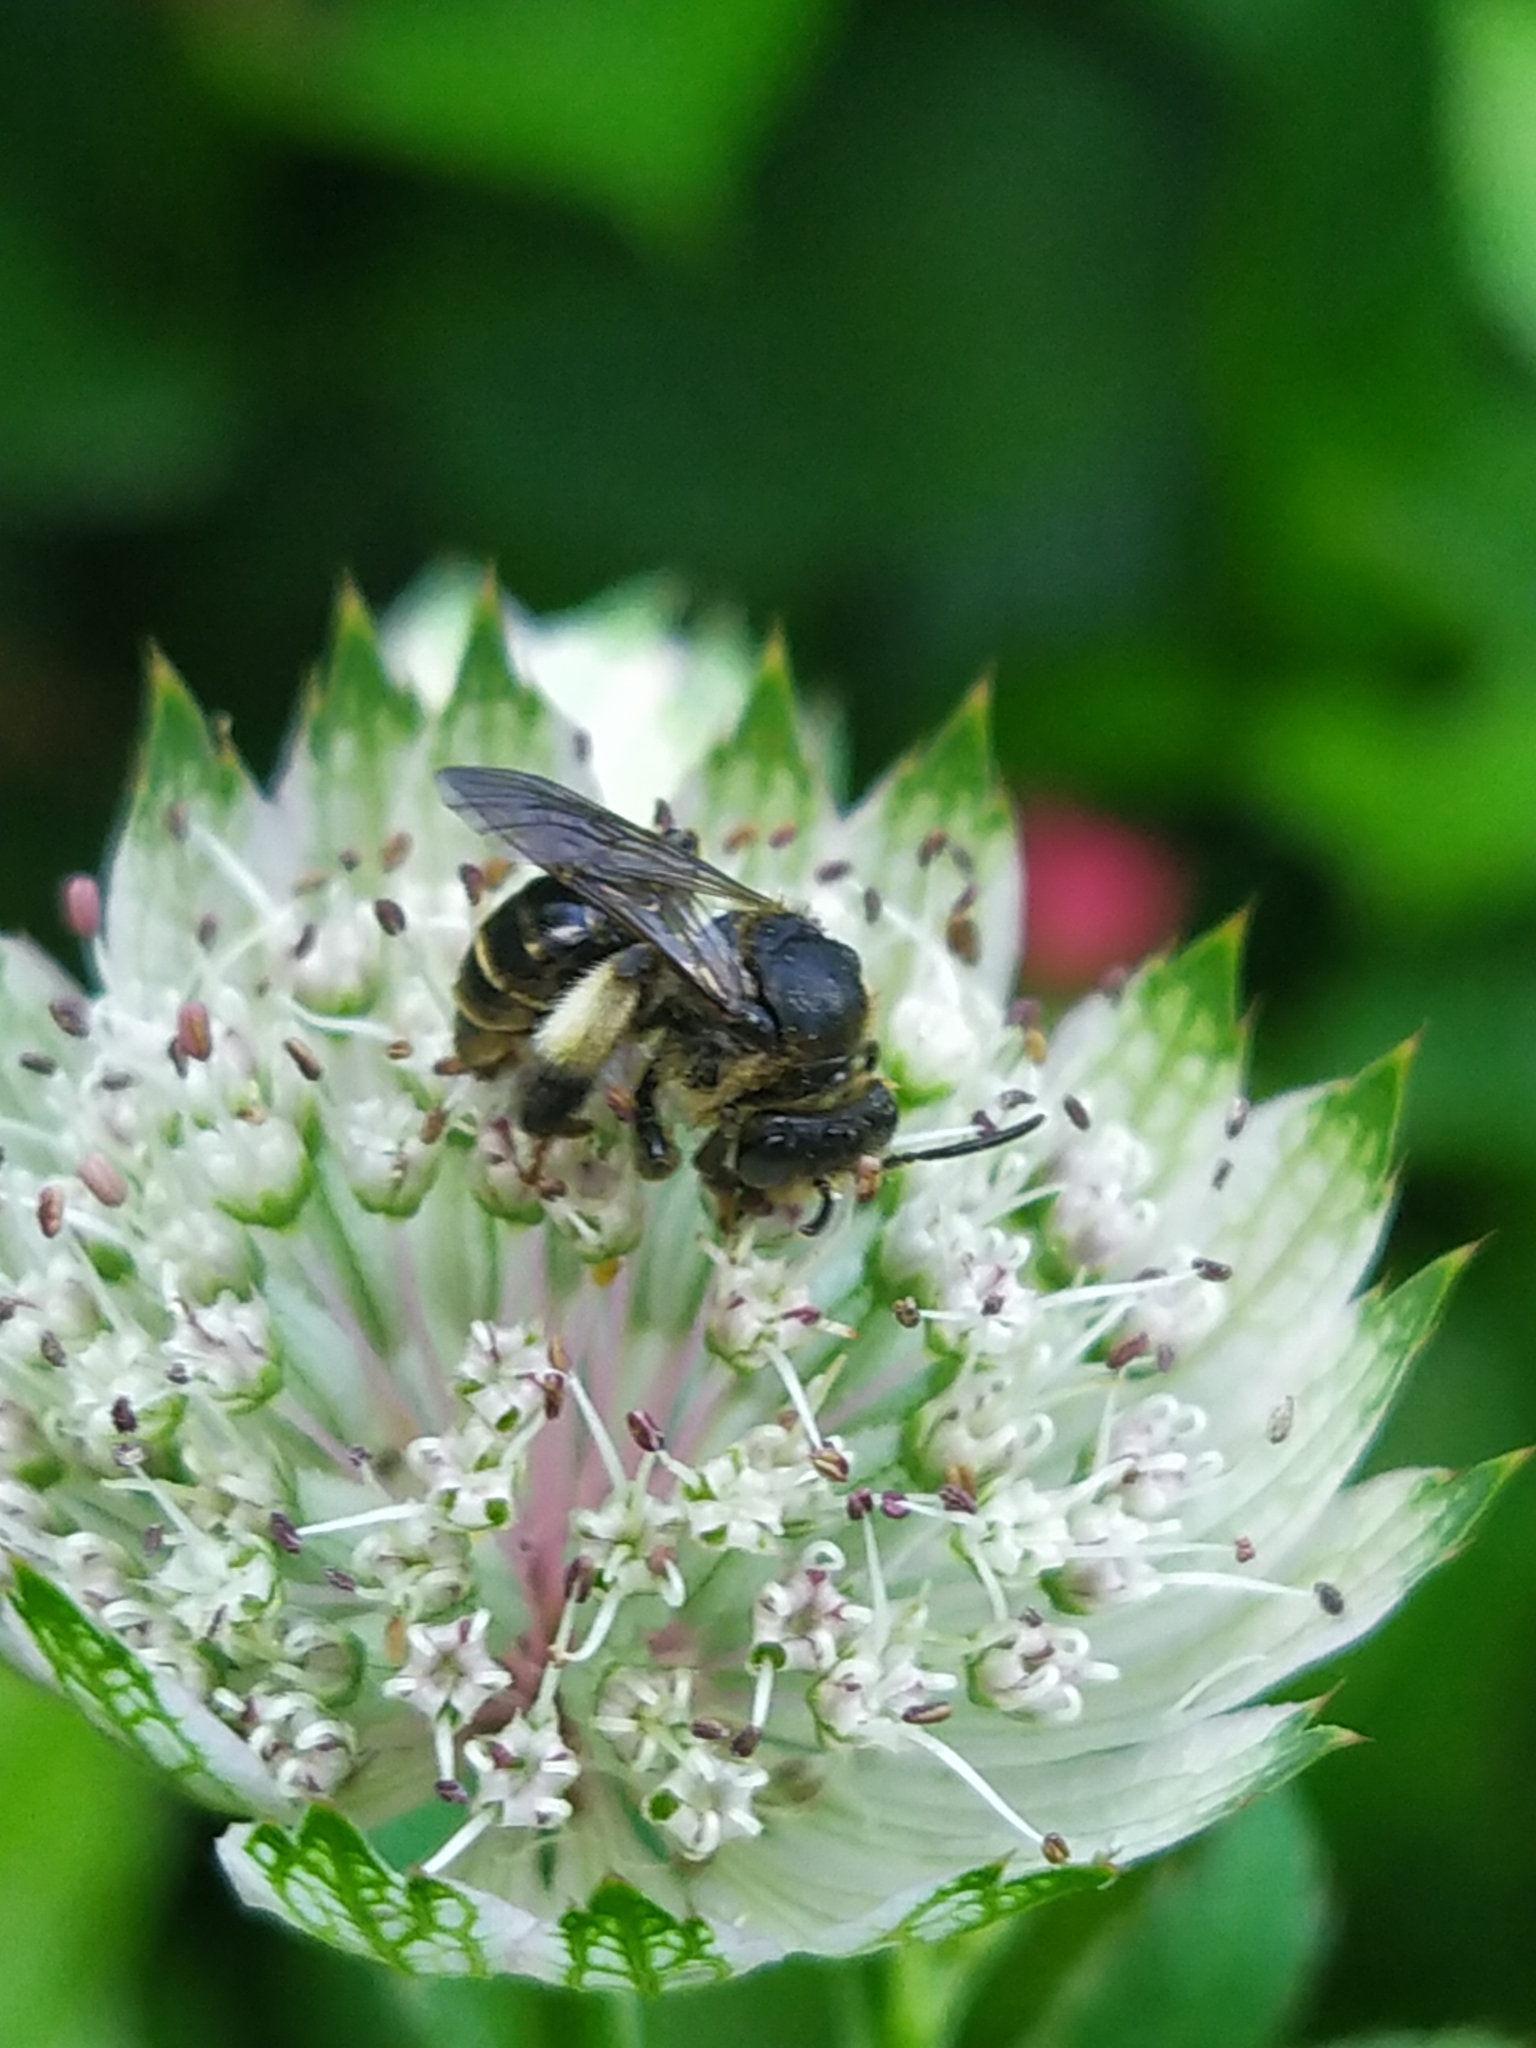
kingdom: Animalia
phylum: Arthropoda
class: Insecta
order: Hymenoptera
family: Melittidae
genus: Macropis
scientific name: Macropis europaea
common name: Yellow loosestrife bee
